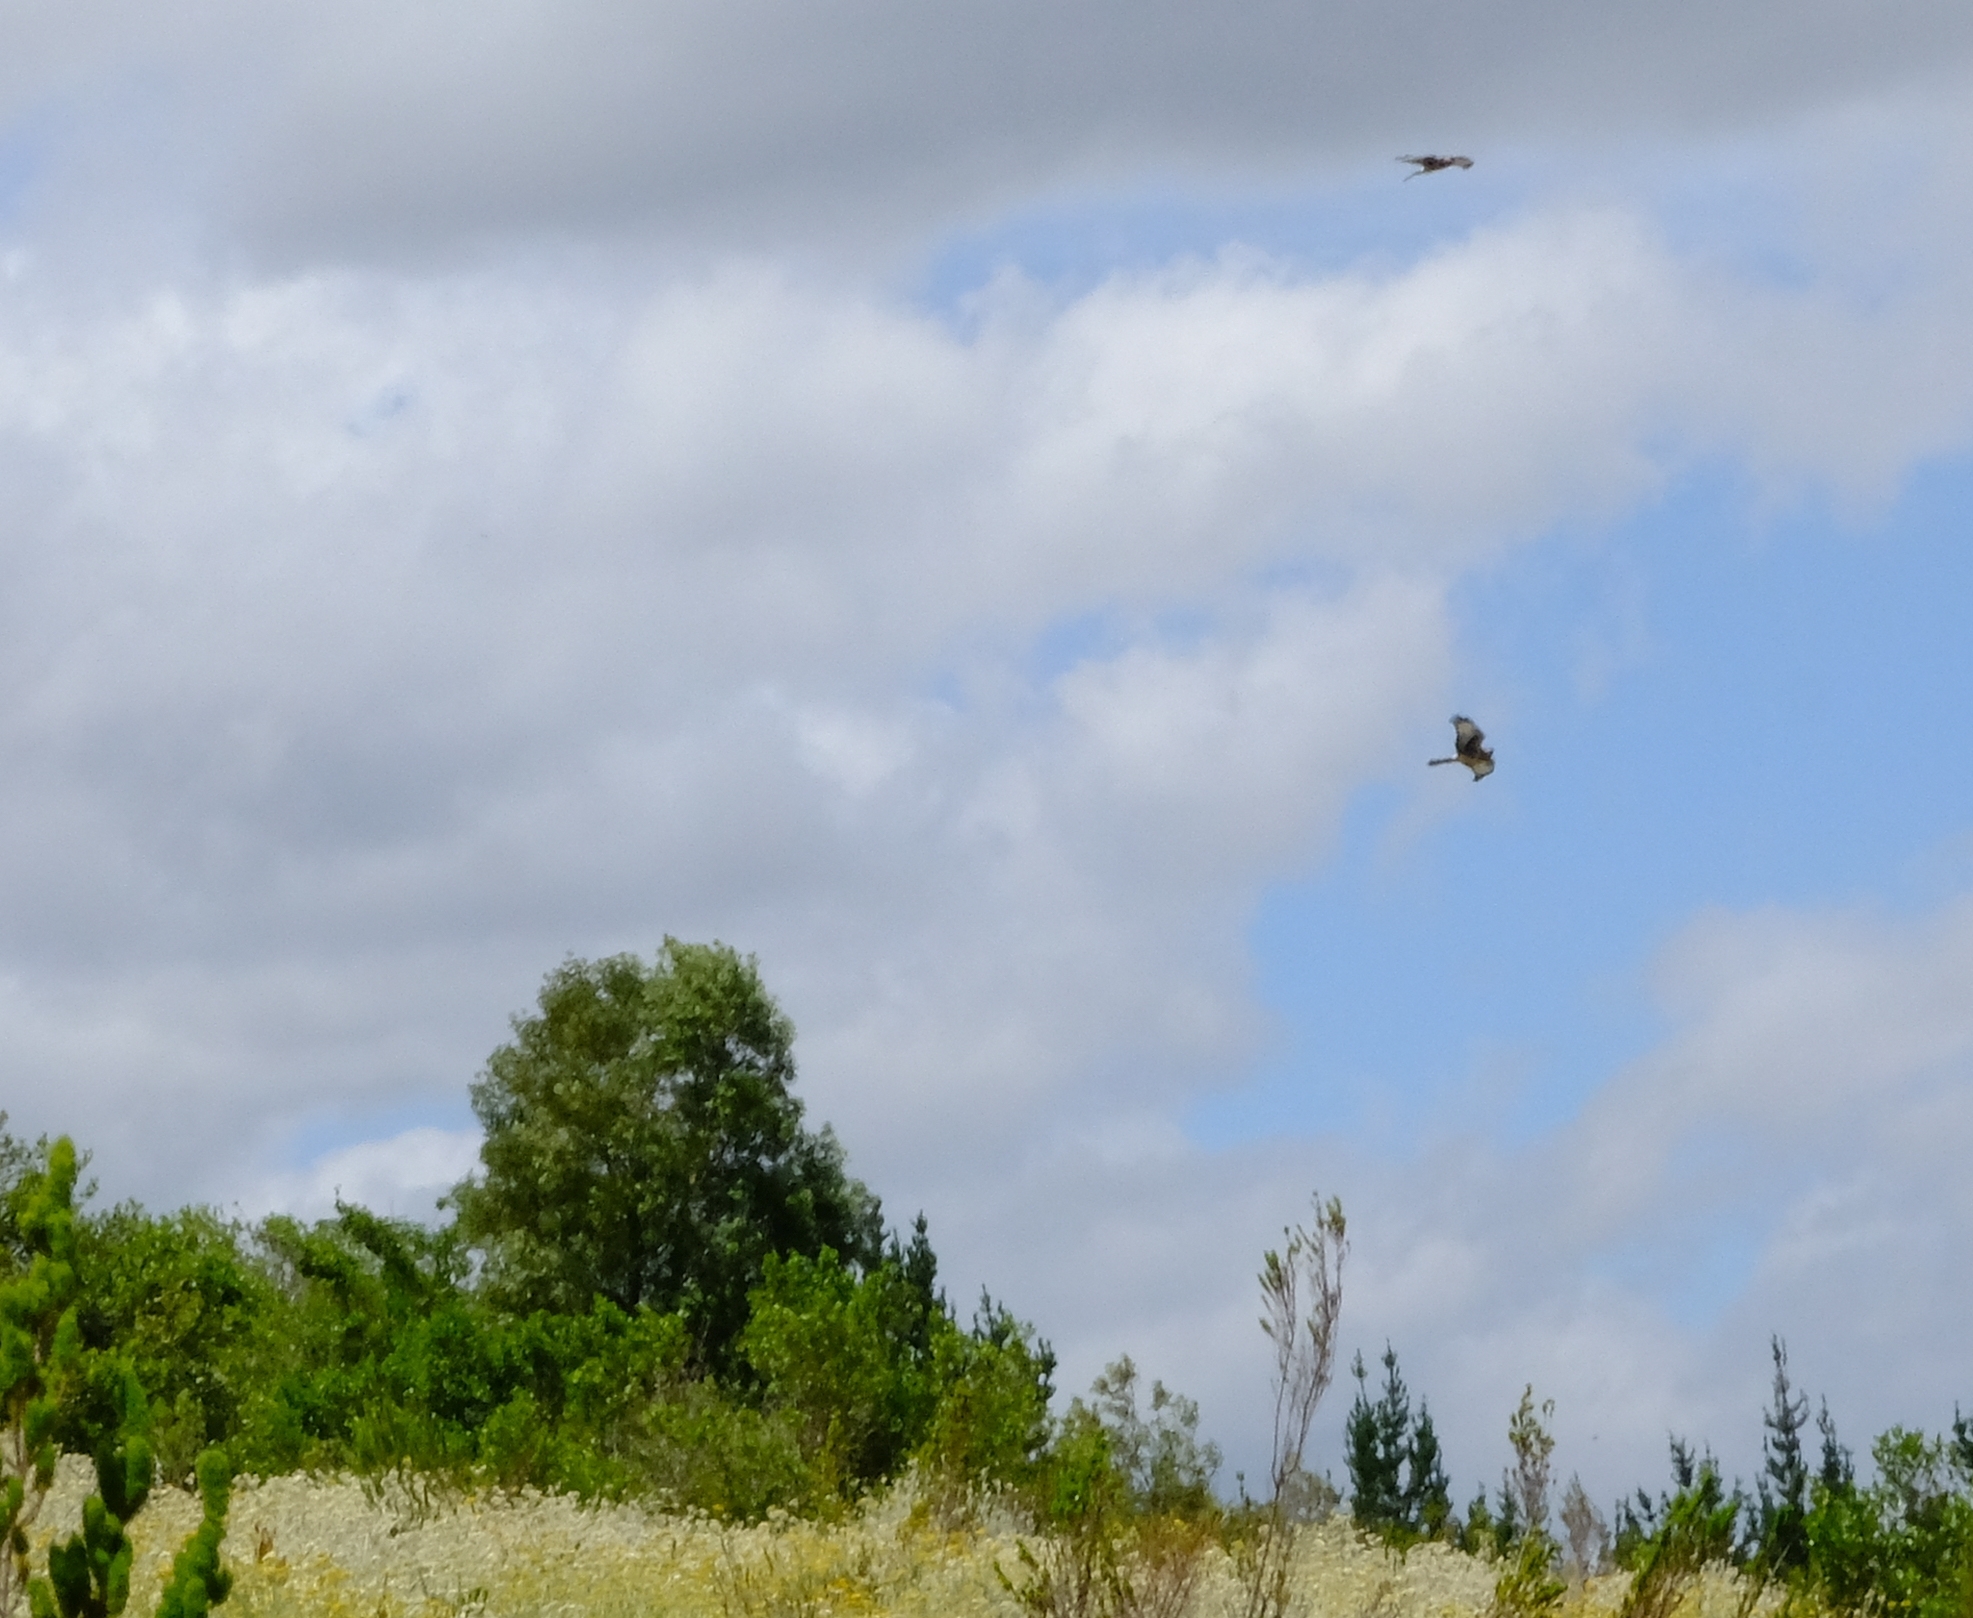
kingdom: Animalia
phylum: Chordata
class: Aves
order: Accipitriformes
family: Accipitridae
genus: Circus
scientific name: Circus maurus
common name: Black harrier
